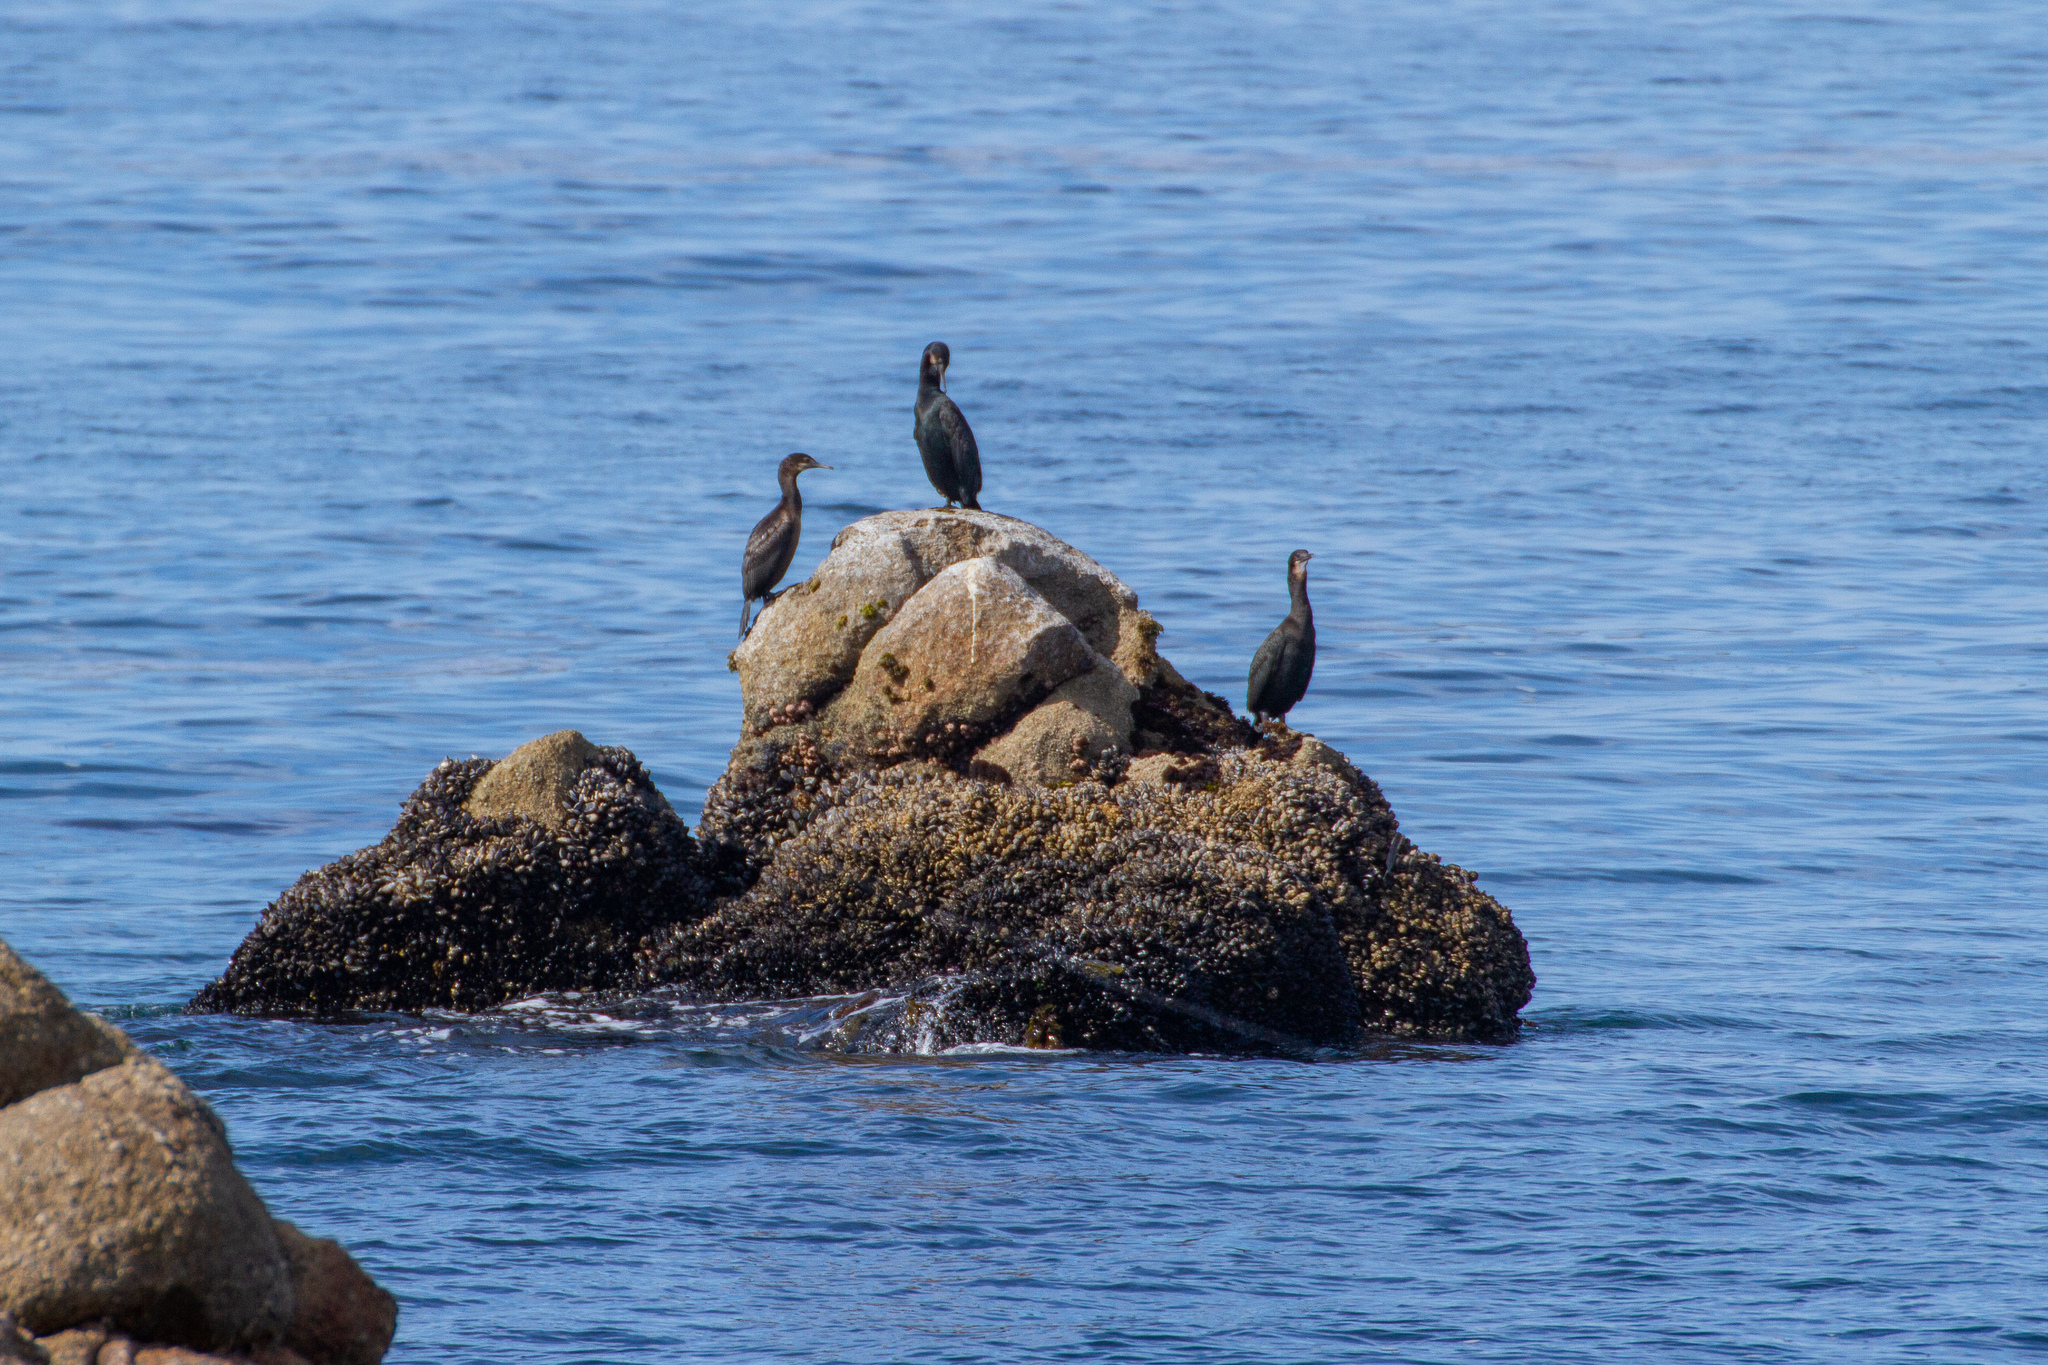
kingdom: Animalia
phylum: Chordata
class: Aves
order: Suliformes
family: Phalacrocoracidae
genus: Urile
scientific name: Urile penicillatus
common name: Brandt's cormorant
